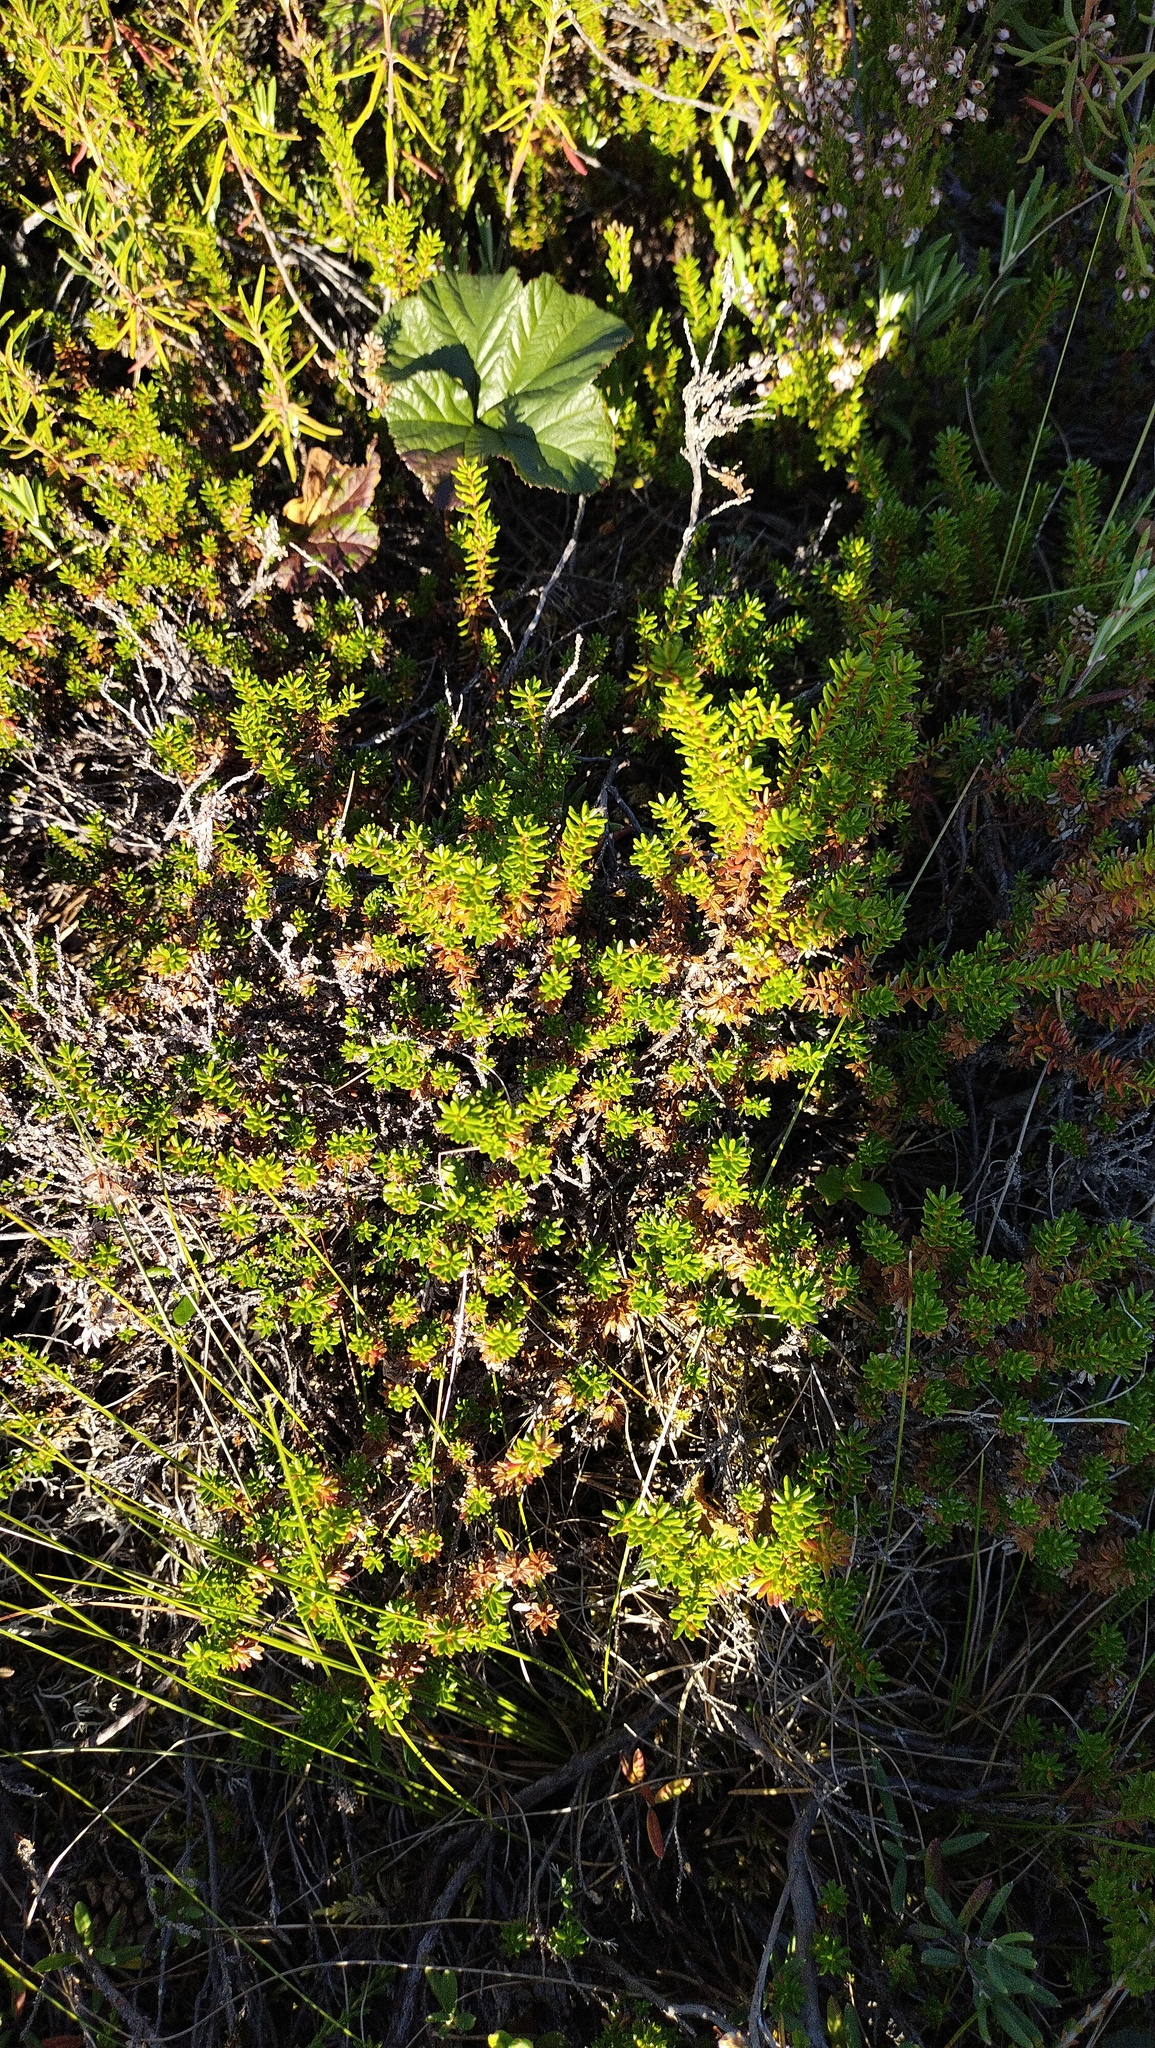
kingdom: Plantae
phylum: Tracheophyta
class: Magnoliopsida
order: Ericales
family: Ericaceae
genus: Empetrum
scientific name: Empetrum nigrum
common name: Black crowberry
